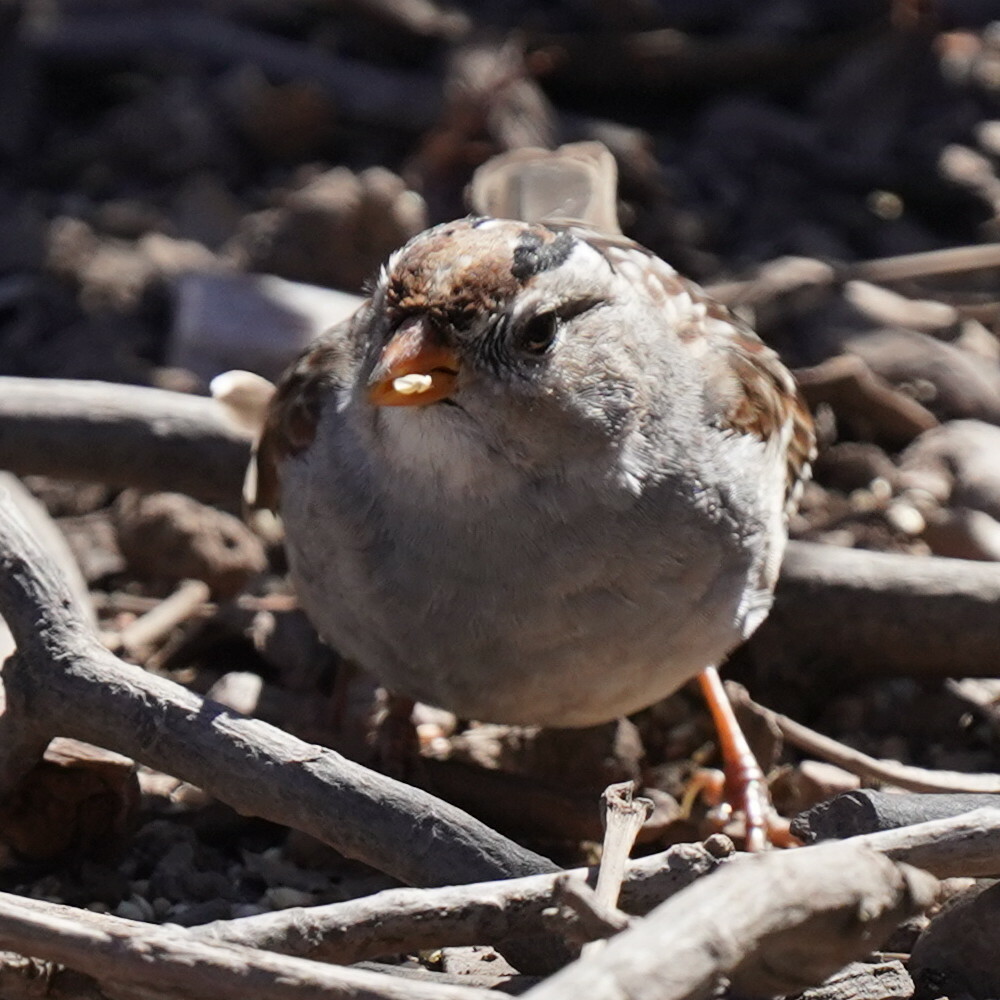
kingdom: Animalia
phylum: Chordata
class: Aves
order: Passeriformes
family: Passerellidae
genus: Zonotrichia
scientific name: Zonotrichia leucophrys
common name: White-crowned sparrow
